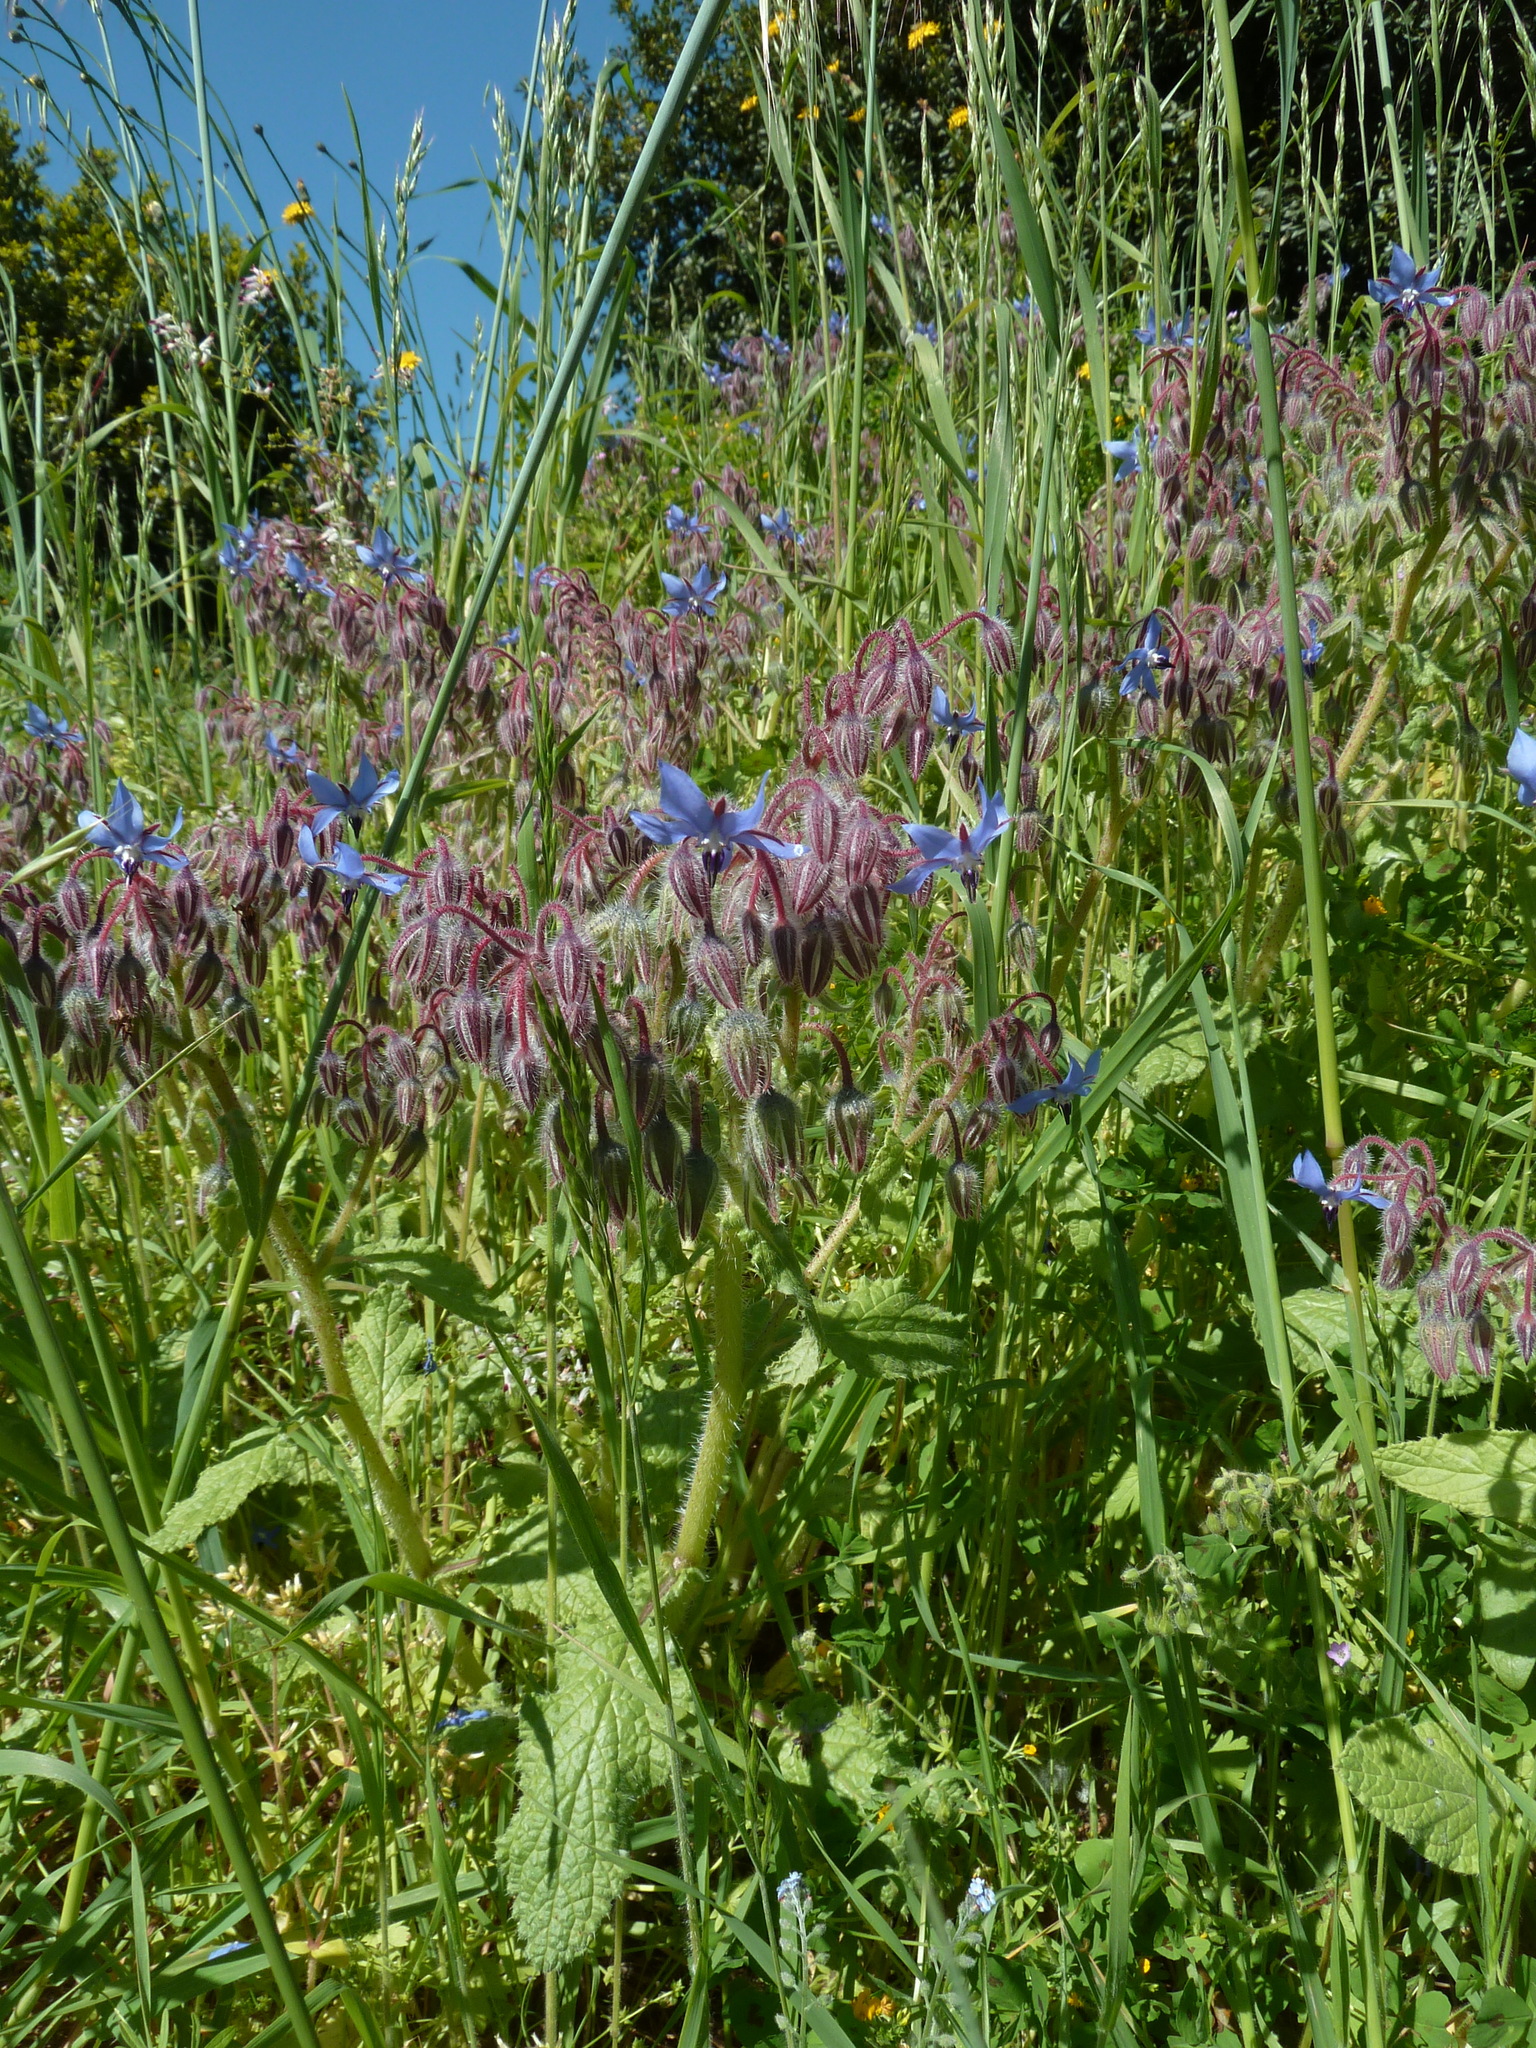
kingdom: Plantae
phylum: Tracheophyta
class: Magnoliopsida
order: Boraginales
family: Boraginaceae
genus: Borago
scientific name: Borago officinalis
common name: Borage
